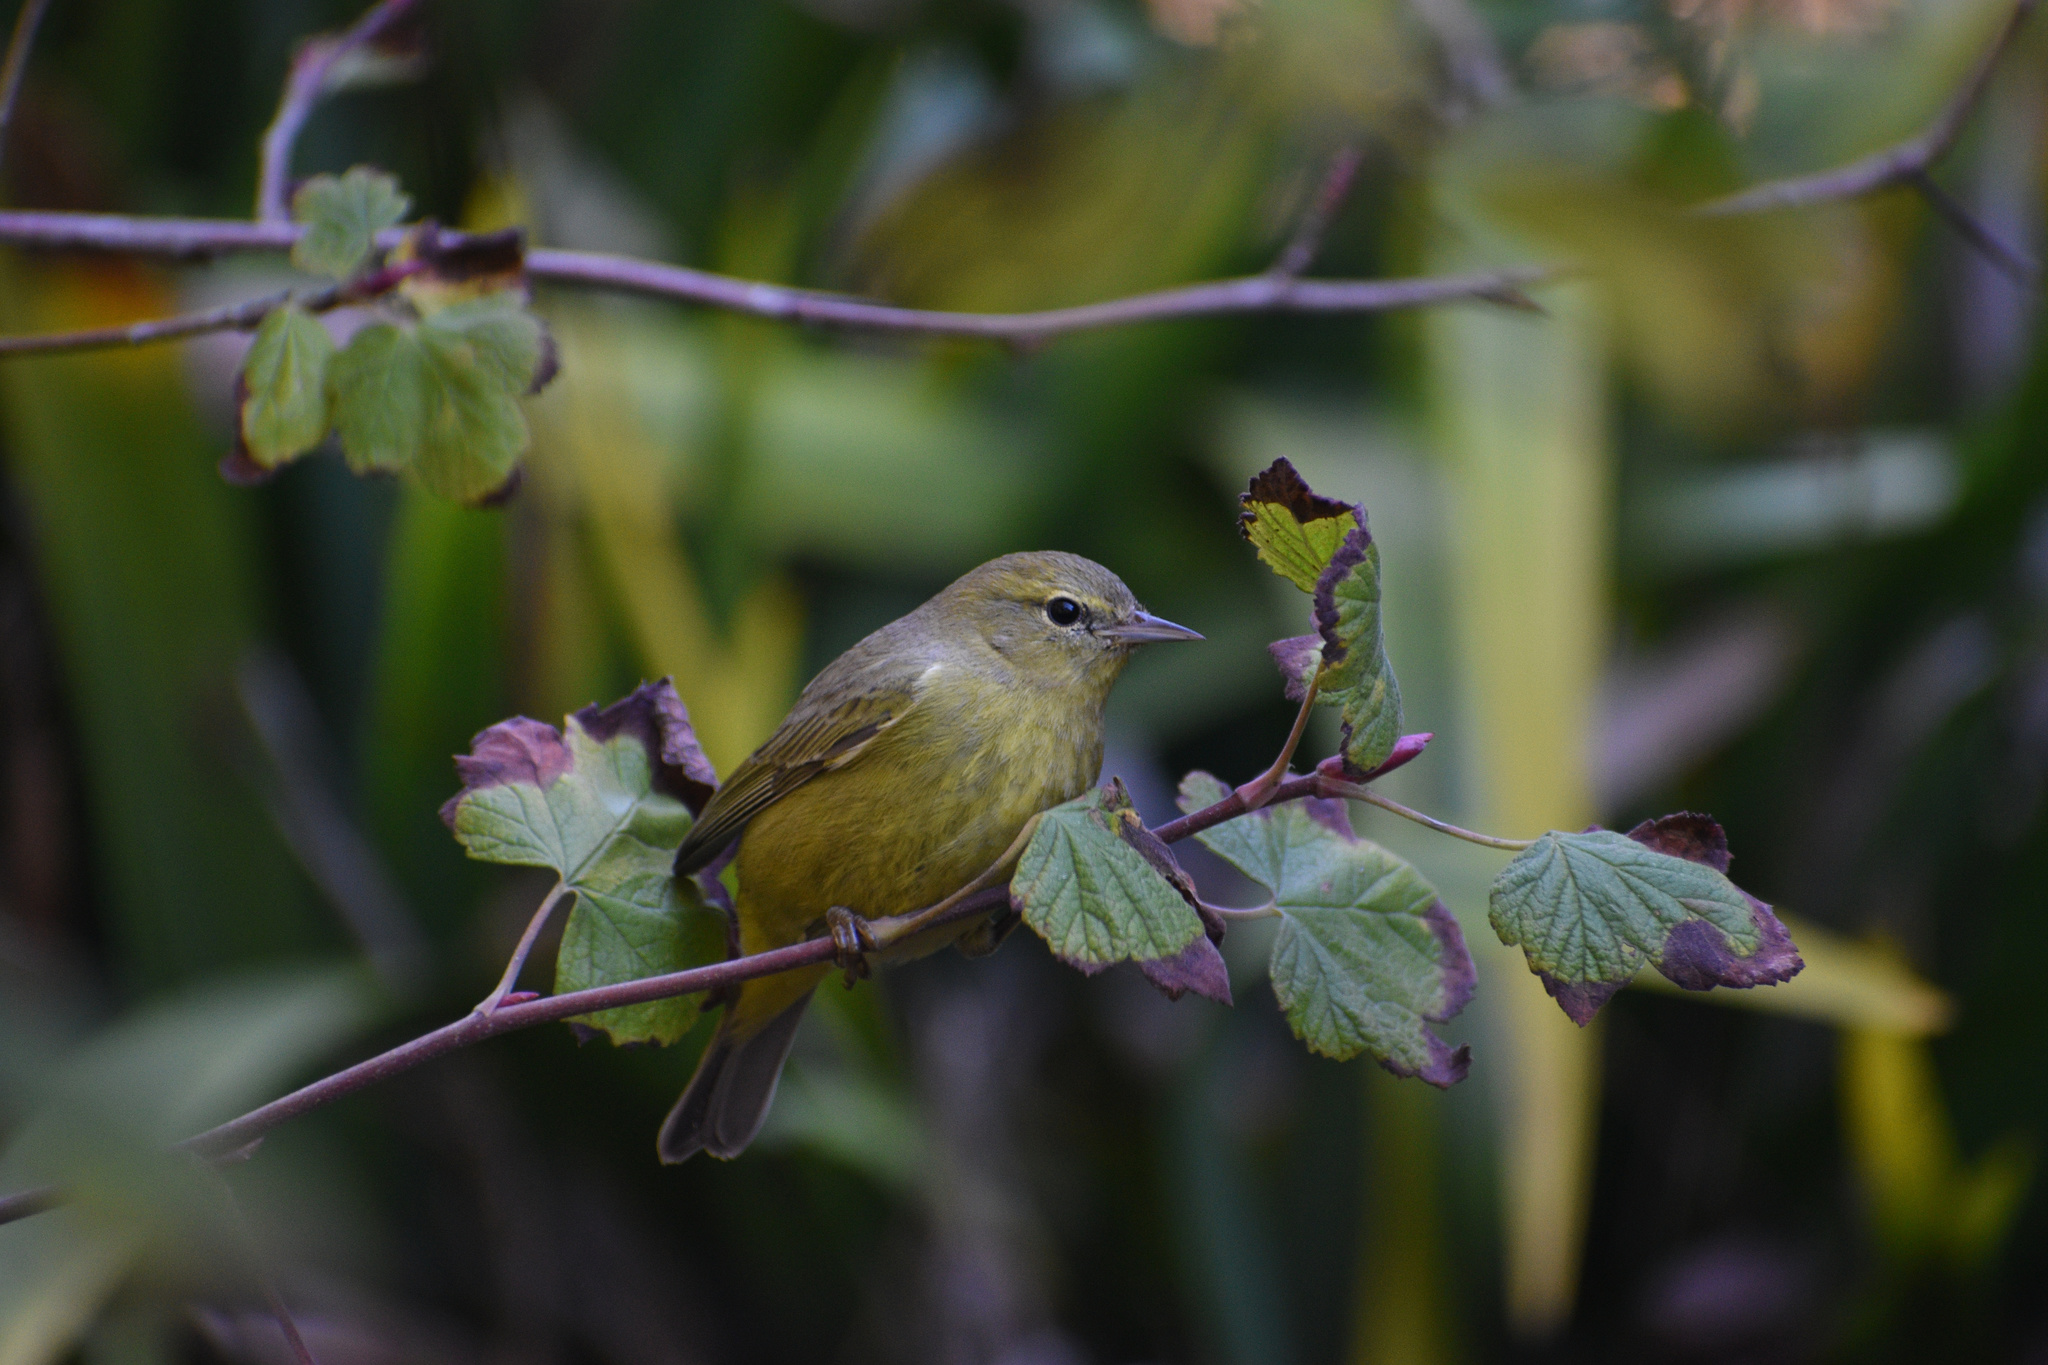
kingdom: Animalia
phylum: Chordata
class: Aves
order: Passeriformes
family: Parulidae
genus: Leiothlypis
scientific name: Leiothlypis celata
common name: Orange-crowned warbler
